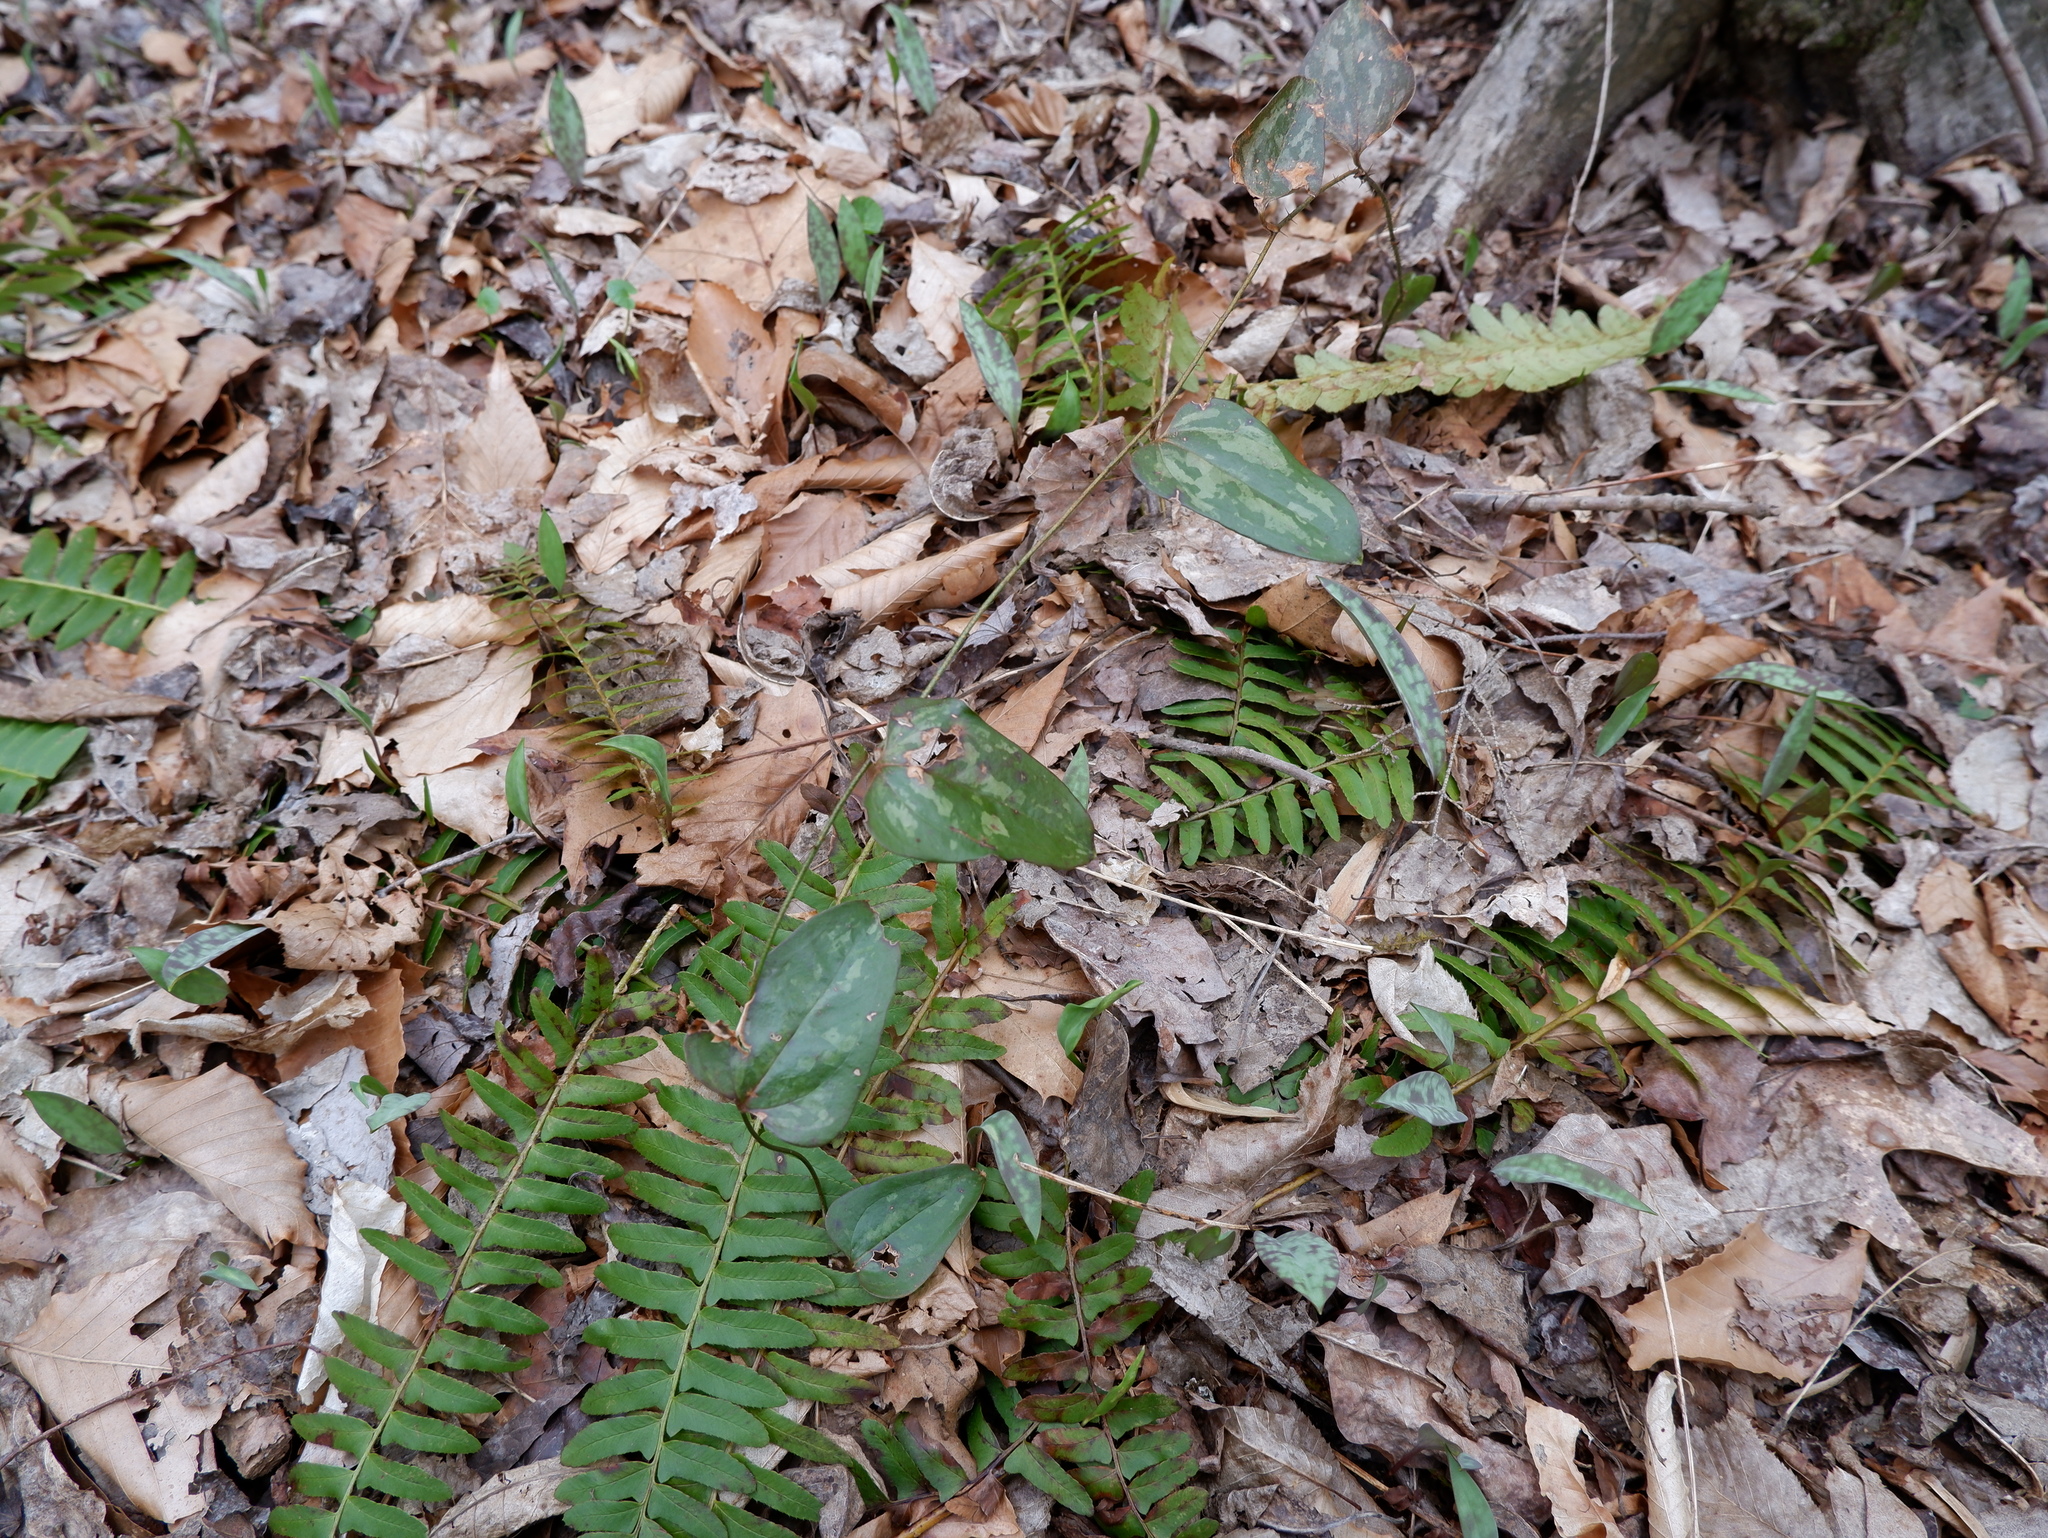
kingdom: Plantae
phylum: Tracheophyta
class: Liliopsida
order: Liliales
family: Smilacaceae
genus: Smilax
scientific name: Smilax glauca
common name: Cat greenbrier
